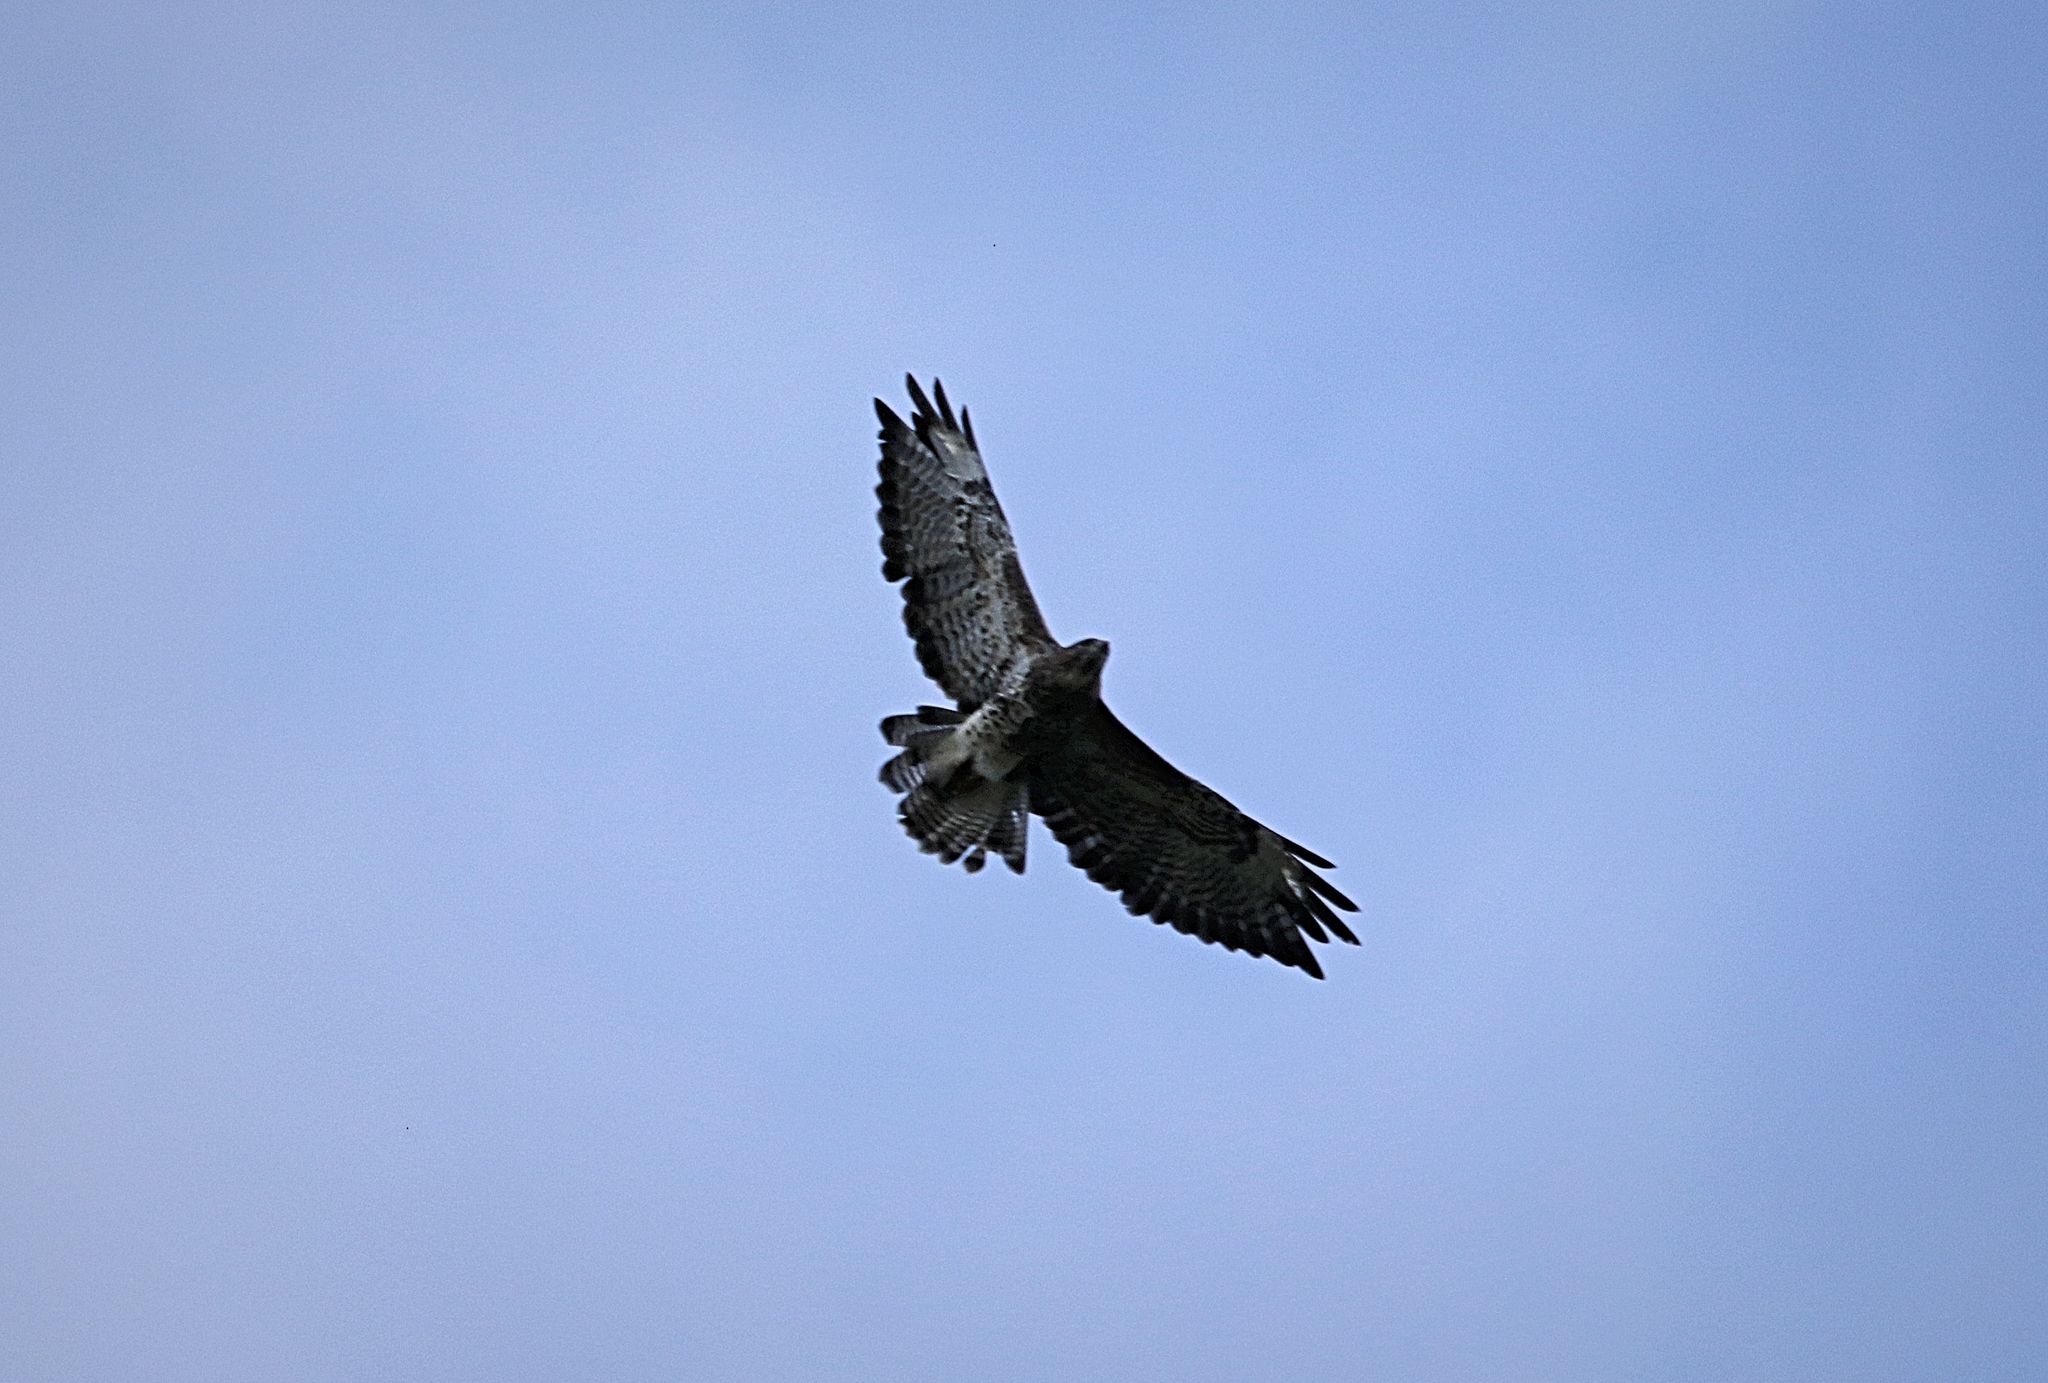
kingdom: Animalia
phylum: Chordata
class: Aves
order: Accipitriformes
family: Accipitridae
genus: Buteo
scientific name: Buteo buteo
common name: Common buzzard
